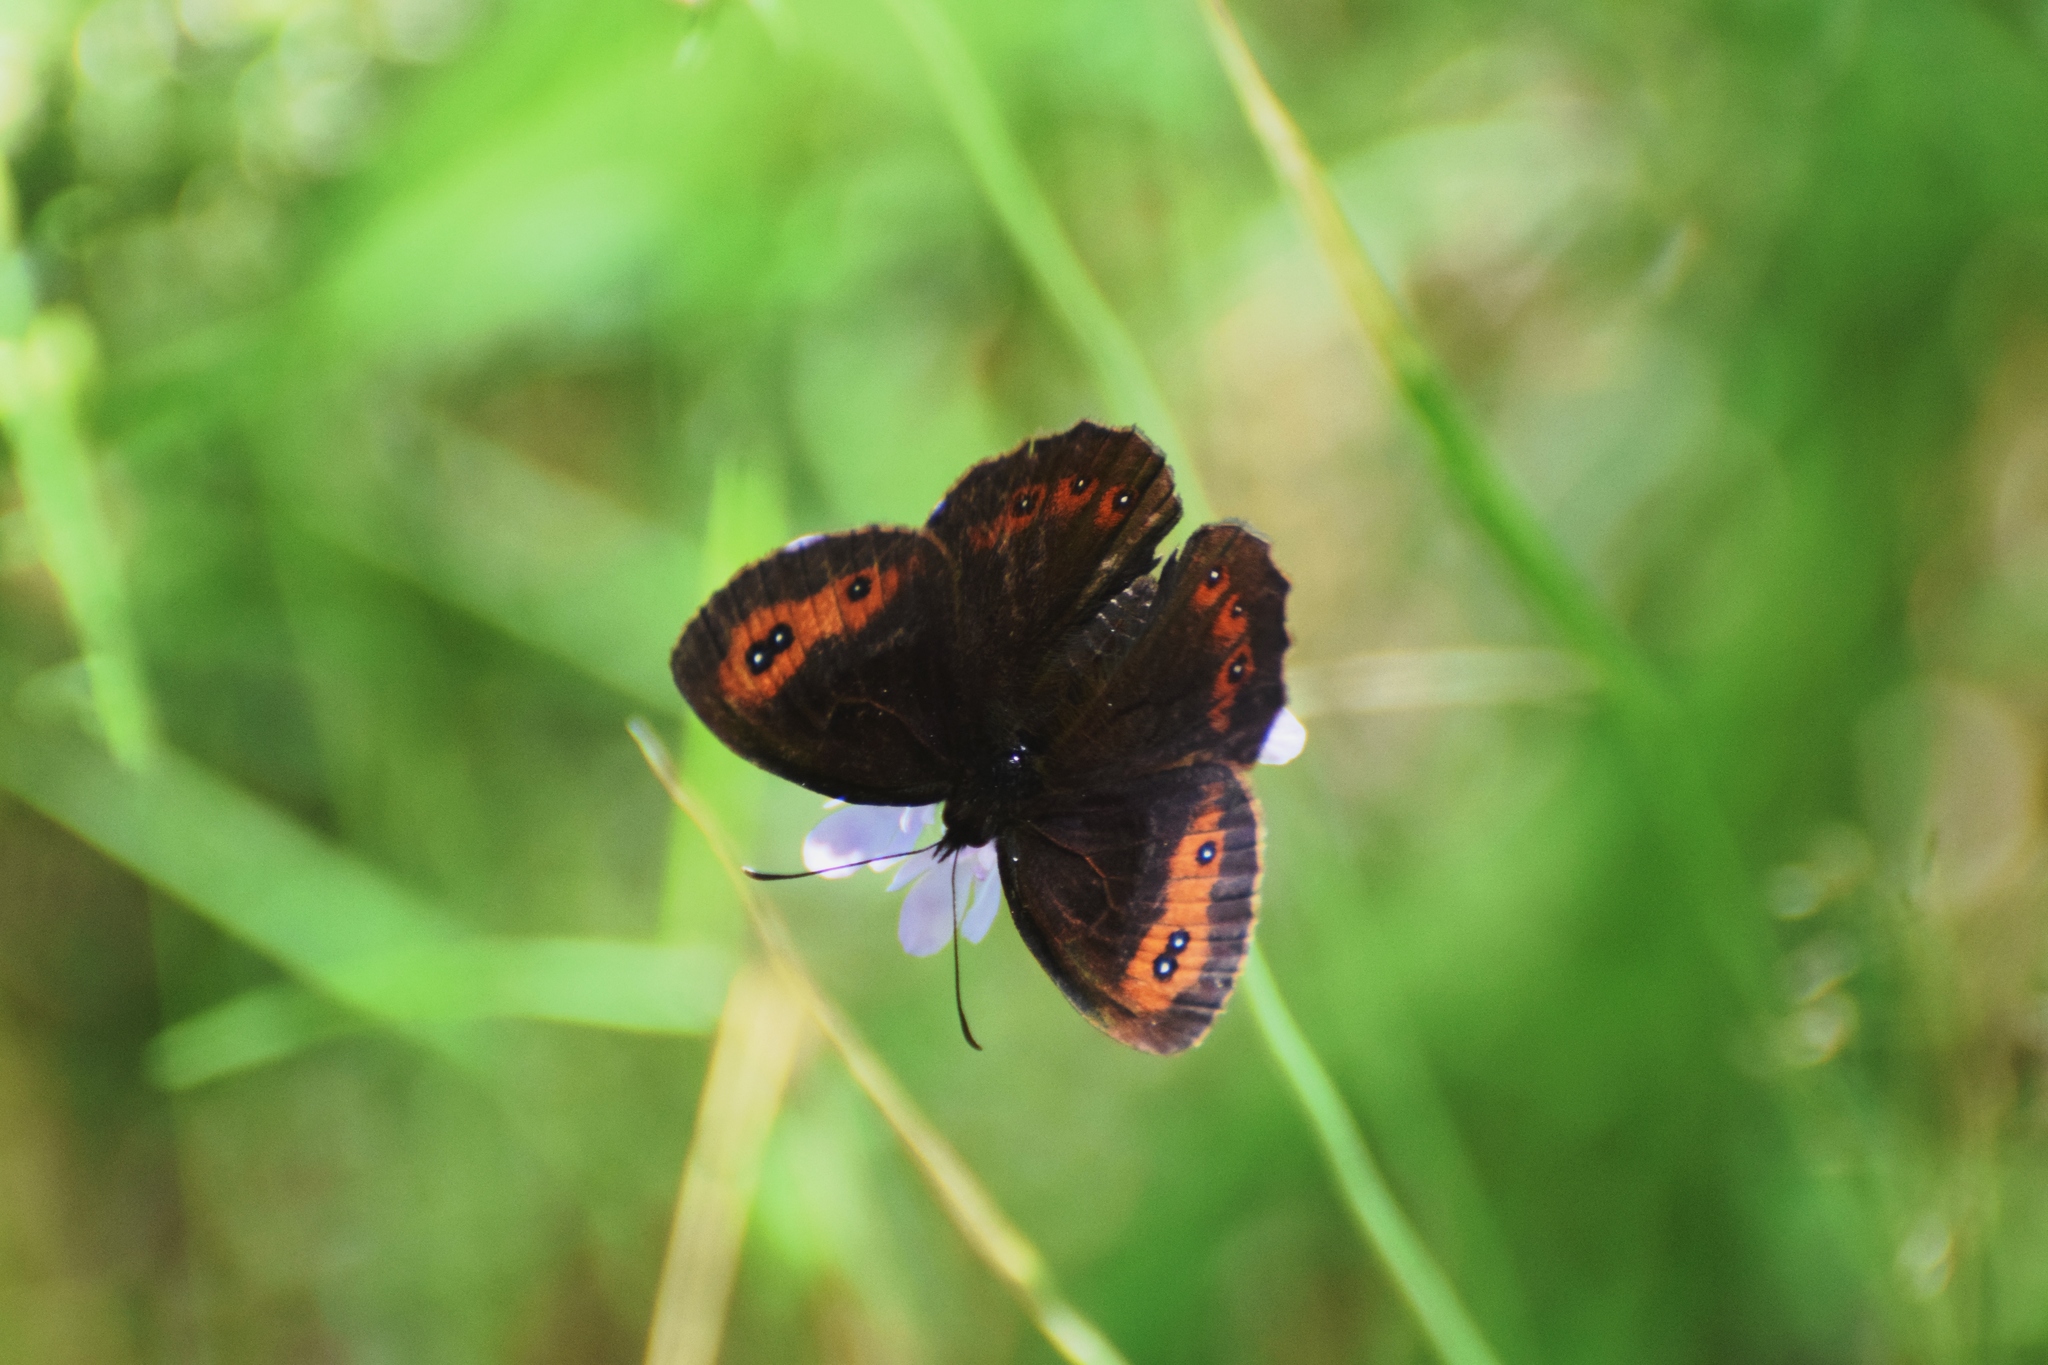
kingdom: Animalia
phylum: Arthropoda
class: Insecta
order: Lepidoptera
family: Nymphalidae
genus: Erebia
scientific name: Erebia aethiops
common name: Scotch argus
